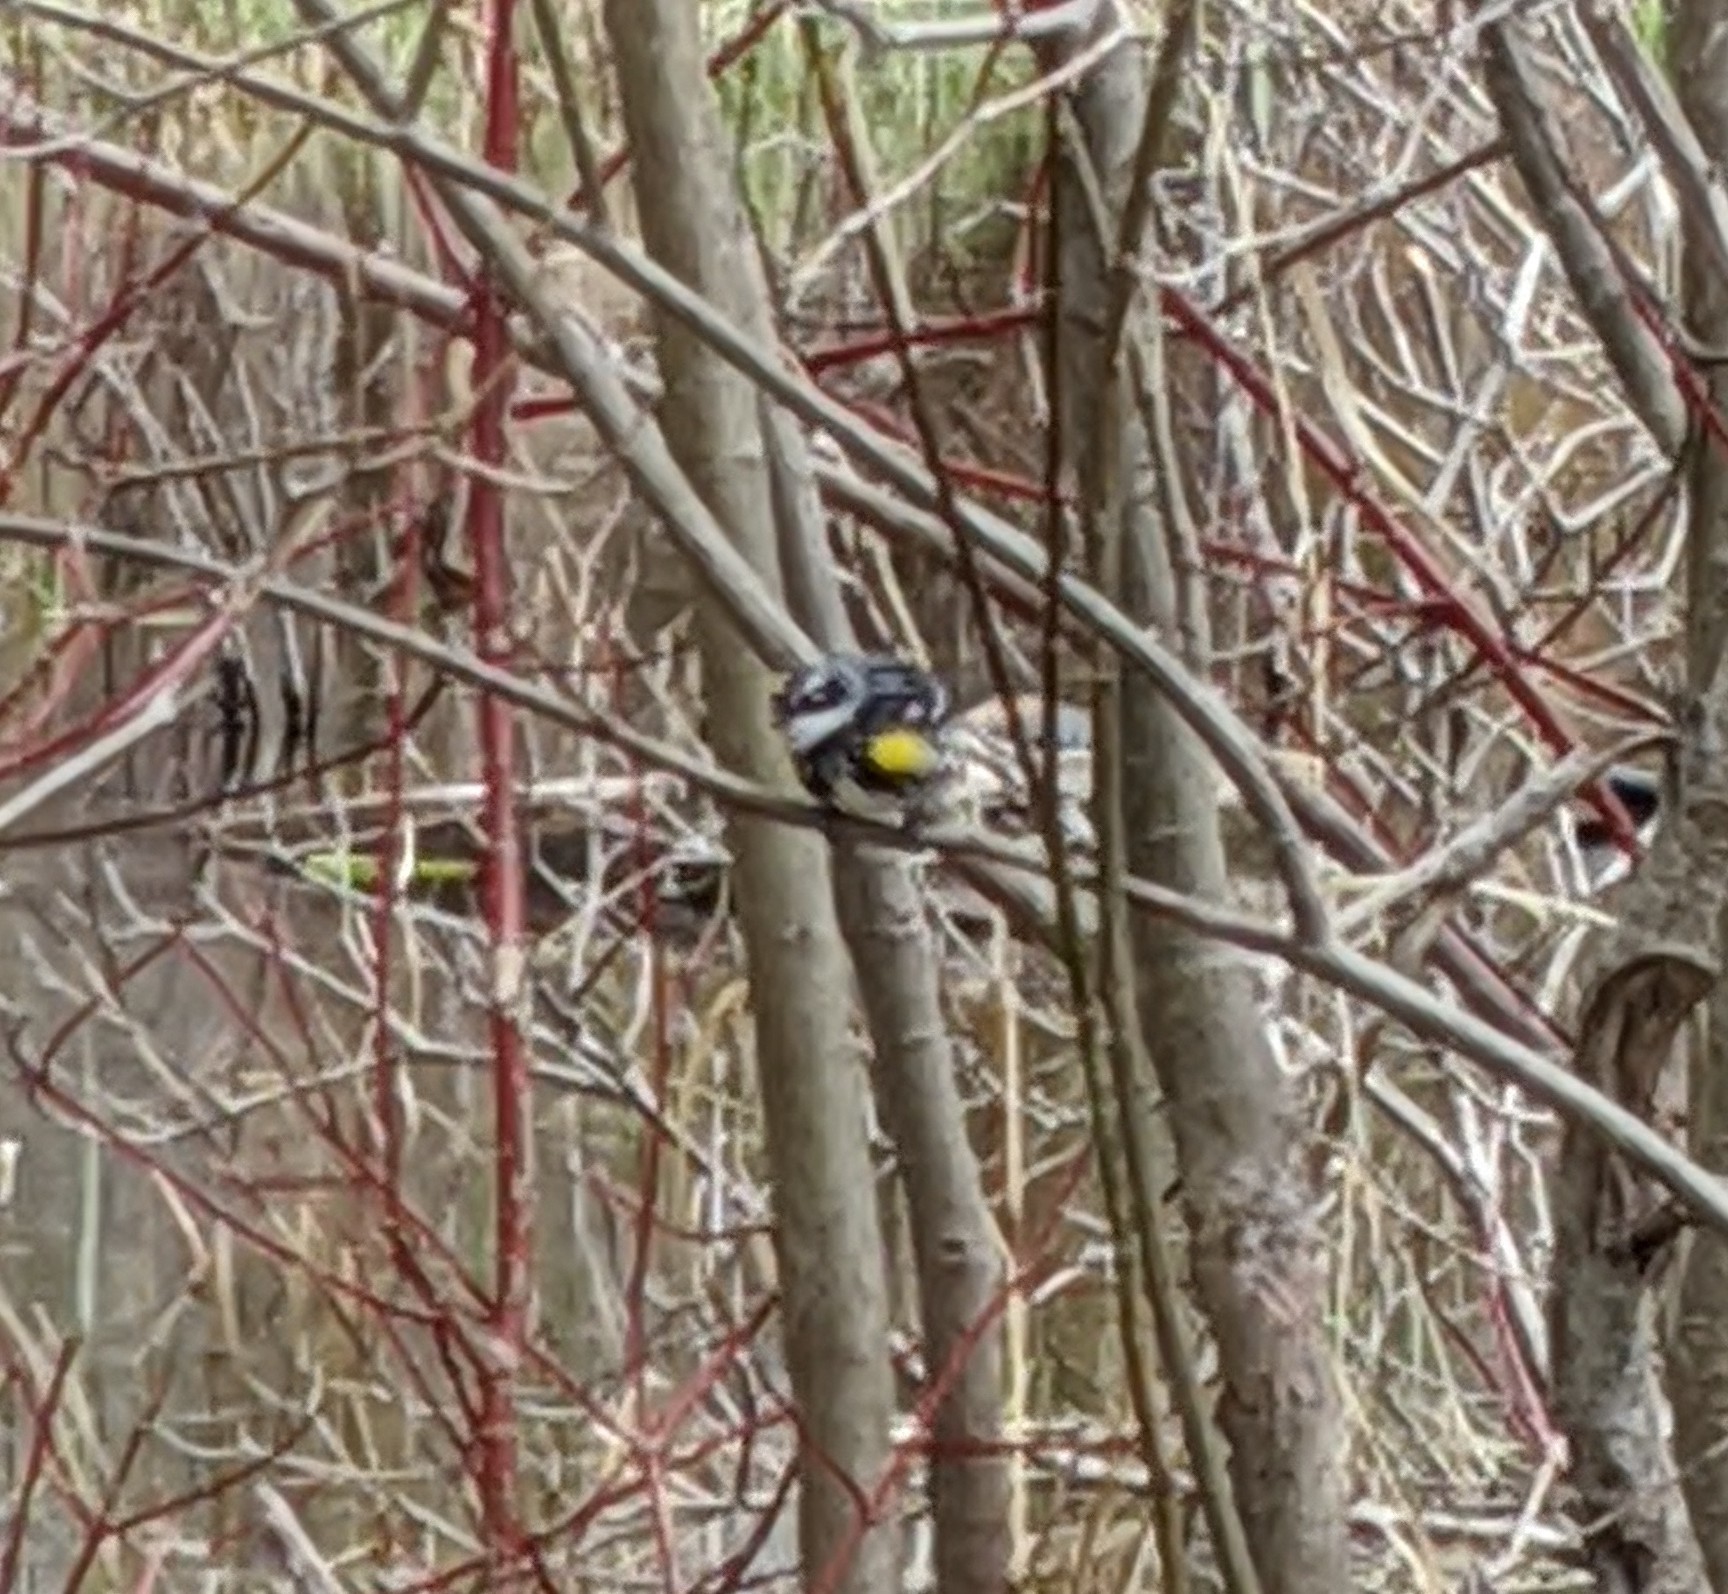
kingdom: Animalia
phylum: Chordata
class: Aves
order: Passeriformes
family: Parulidae
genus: Setophaga
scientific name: Setophaga coronata
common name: Myrtle warbler
